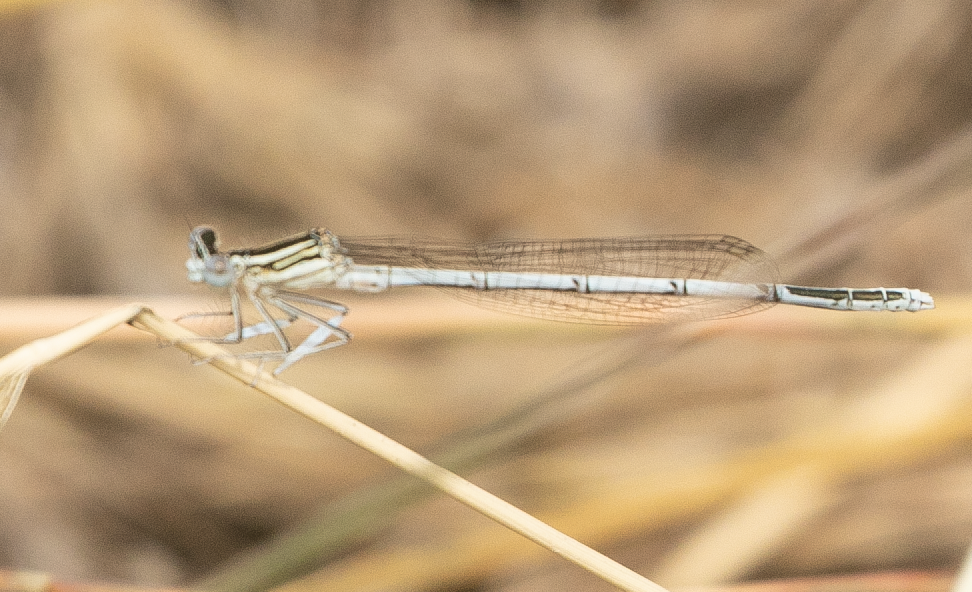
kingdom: Animalia
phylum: Arthropoda
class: Insecta
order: Odonata
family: Platycnemididae
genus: Platycnemis
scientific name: Platycnemis pennipes
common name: White-legged damselfly
